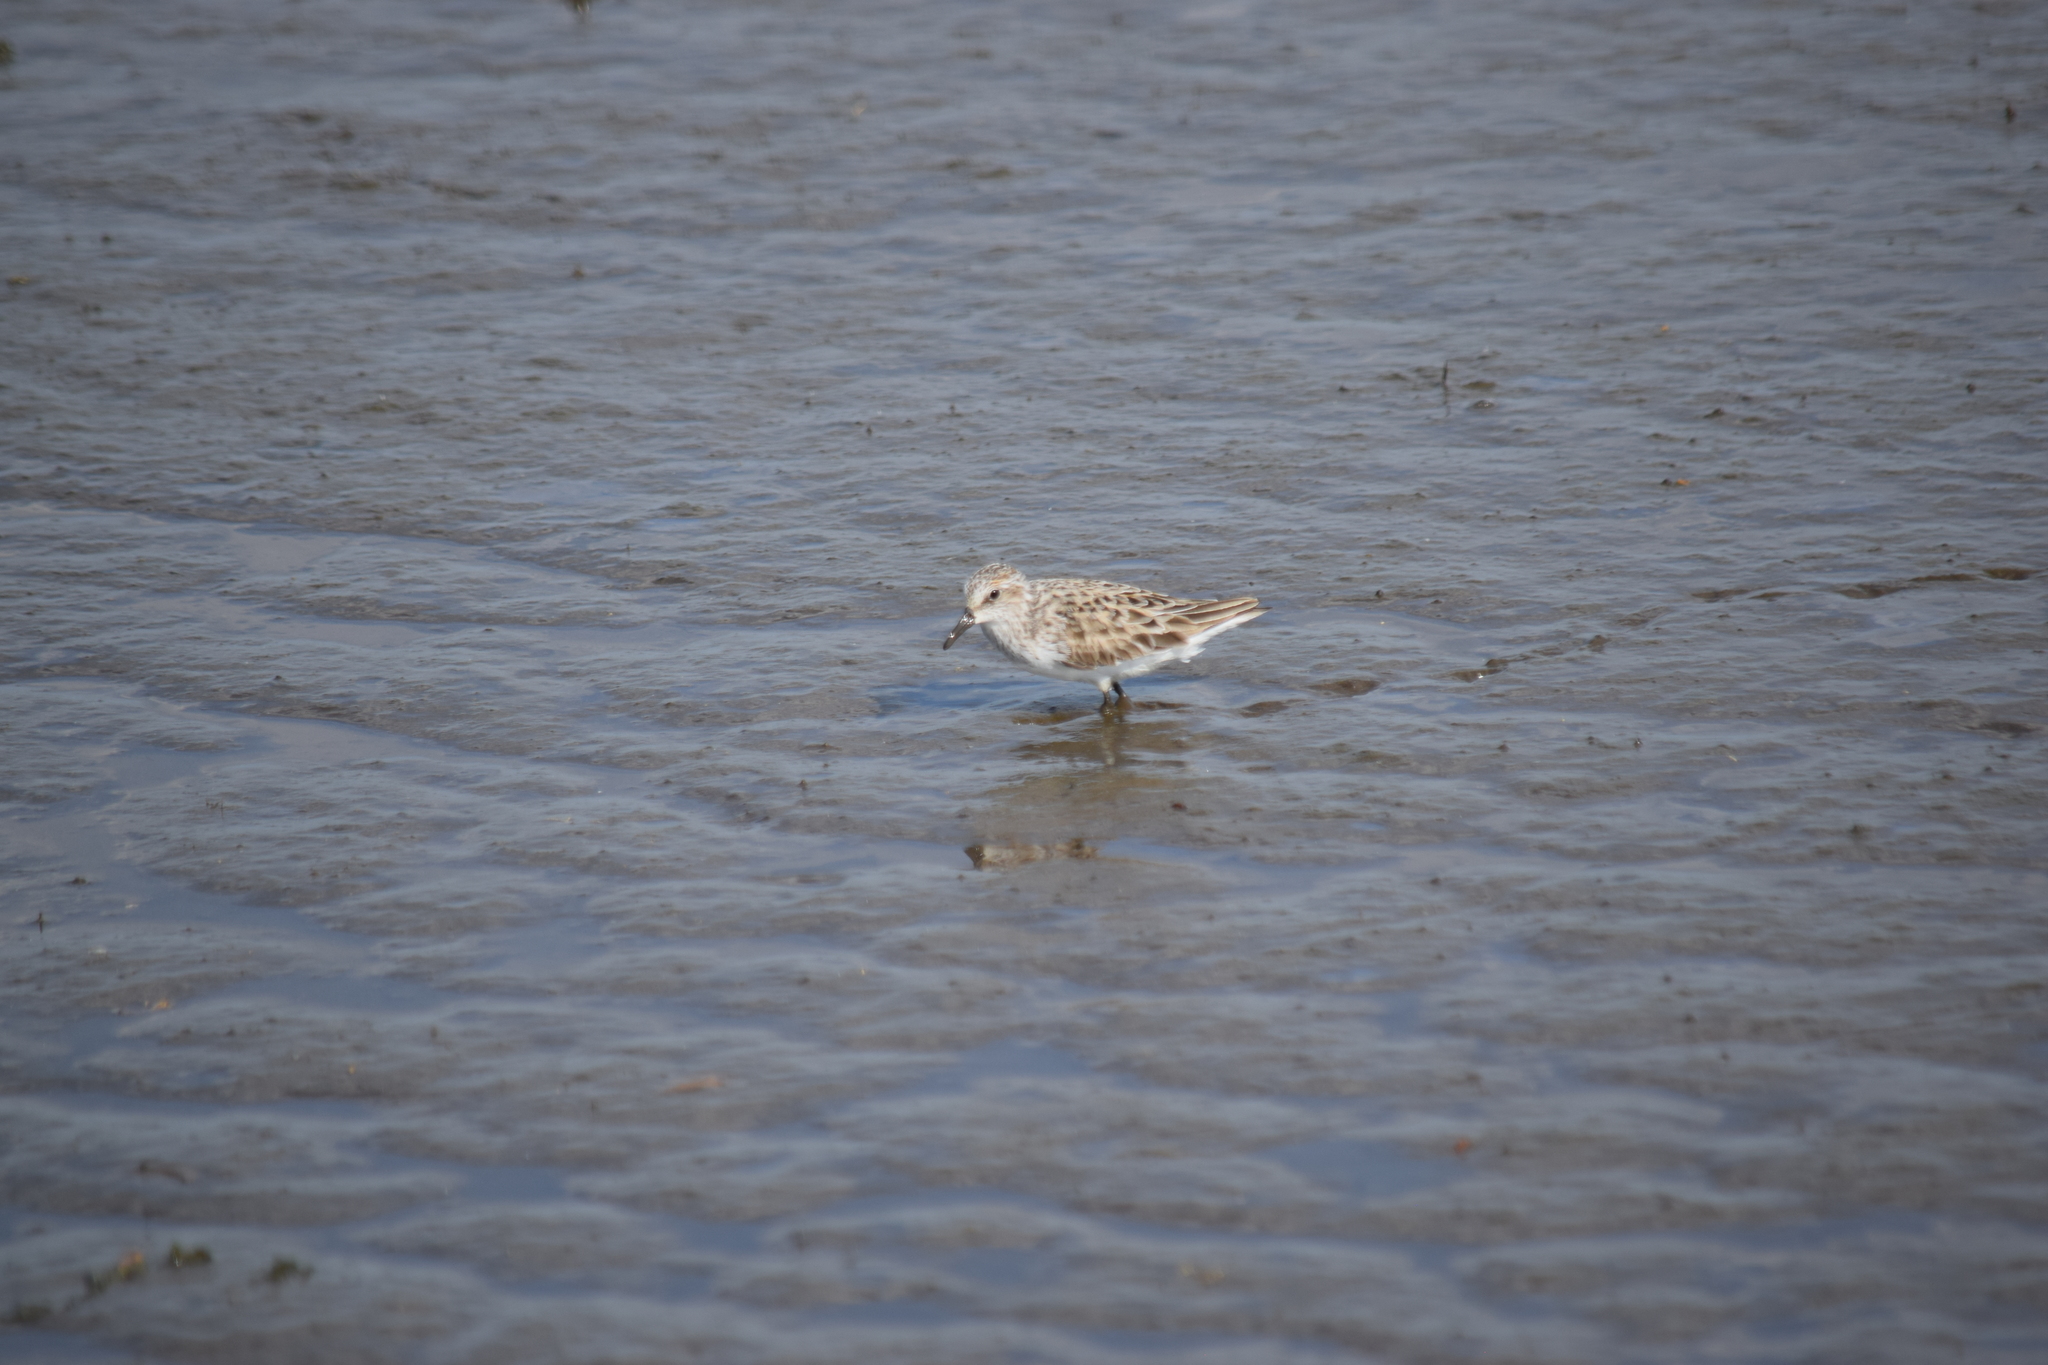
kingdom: Animalia
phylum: Chordata
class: Aves
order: Charadriiformes
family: Scolopacidae
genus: Calidris
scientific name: Calidris pusilla
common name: Semipalmated sandpiper
